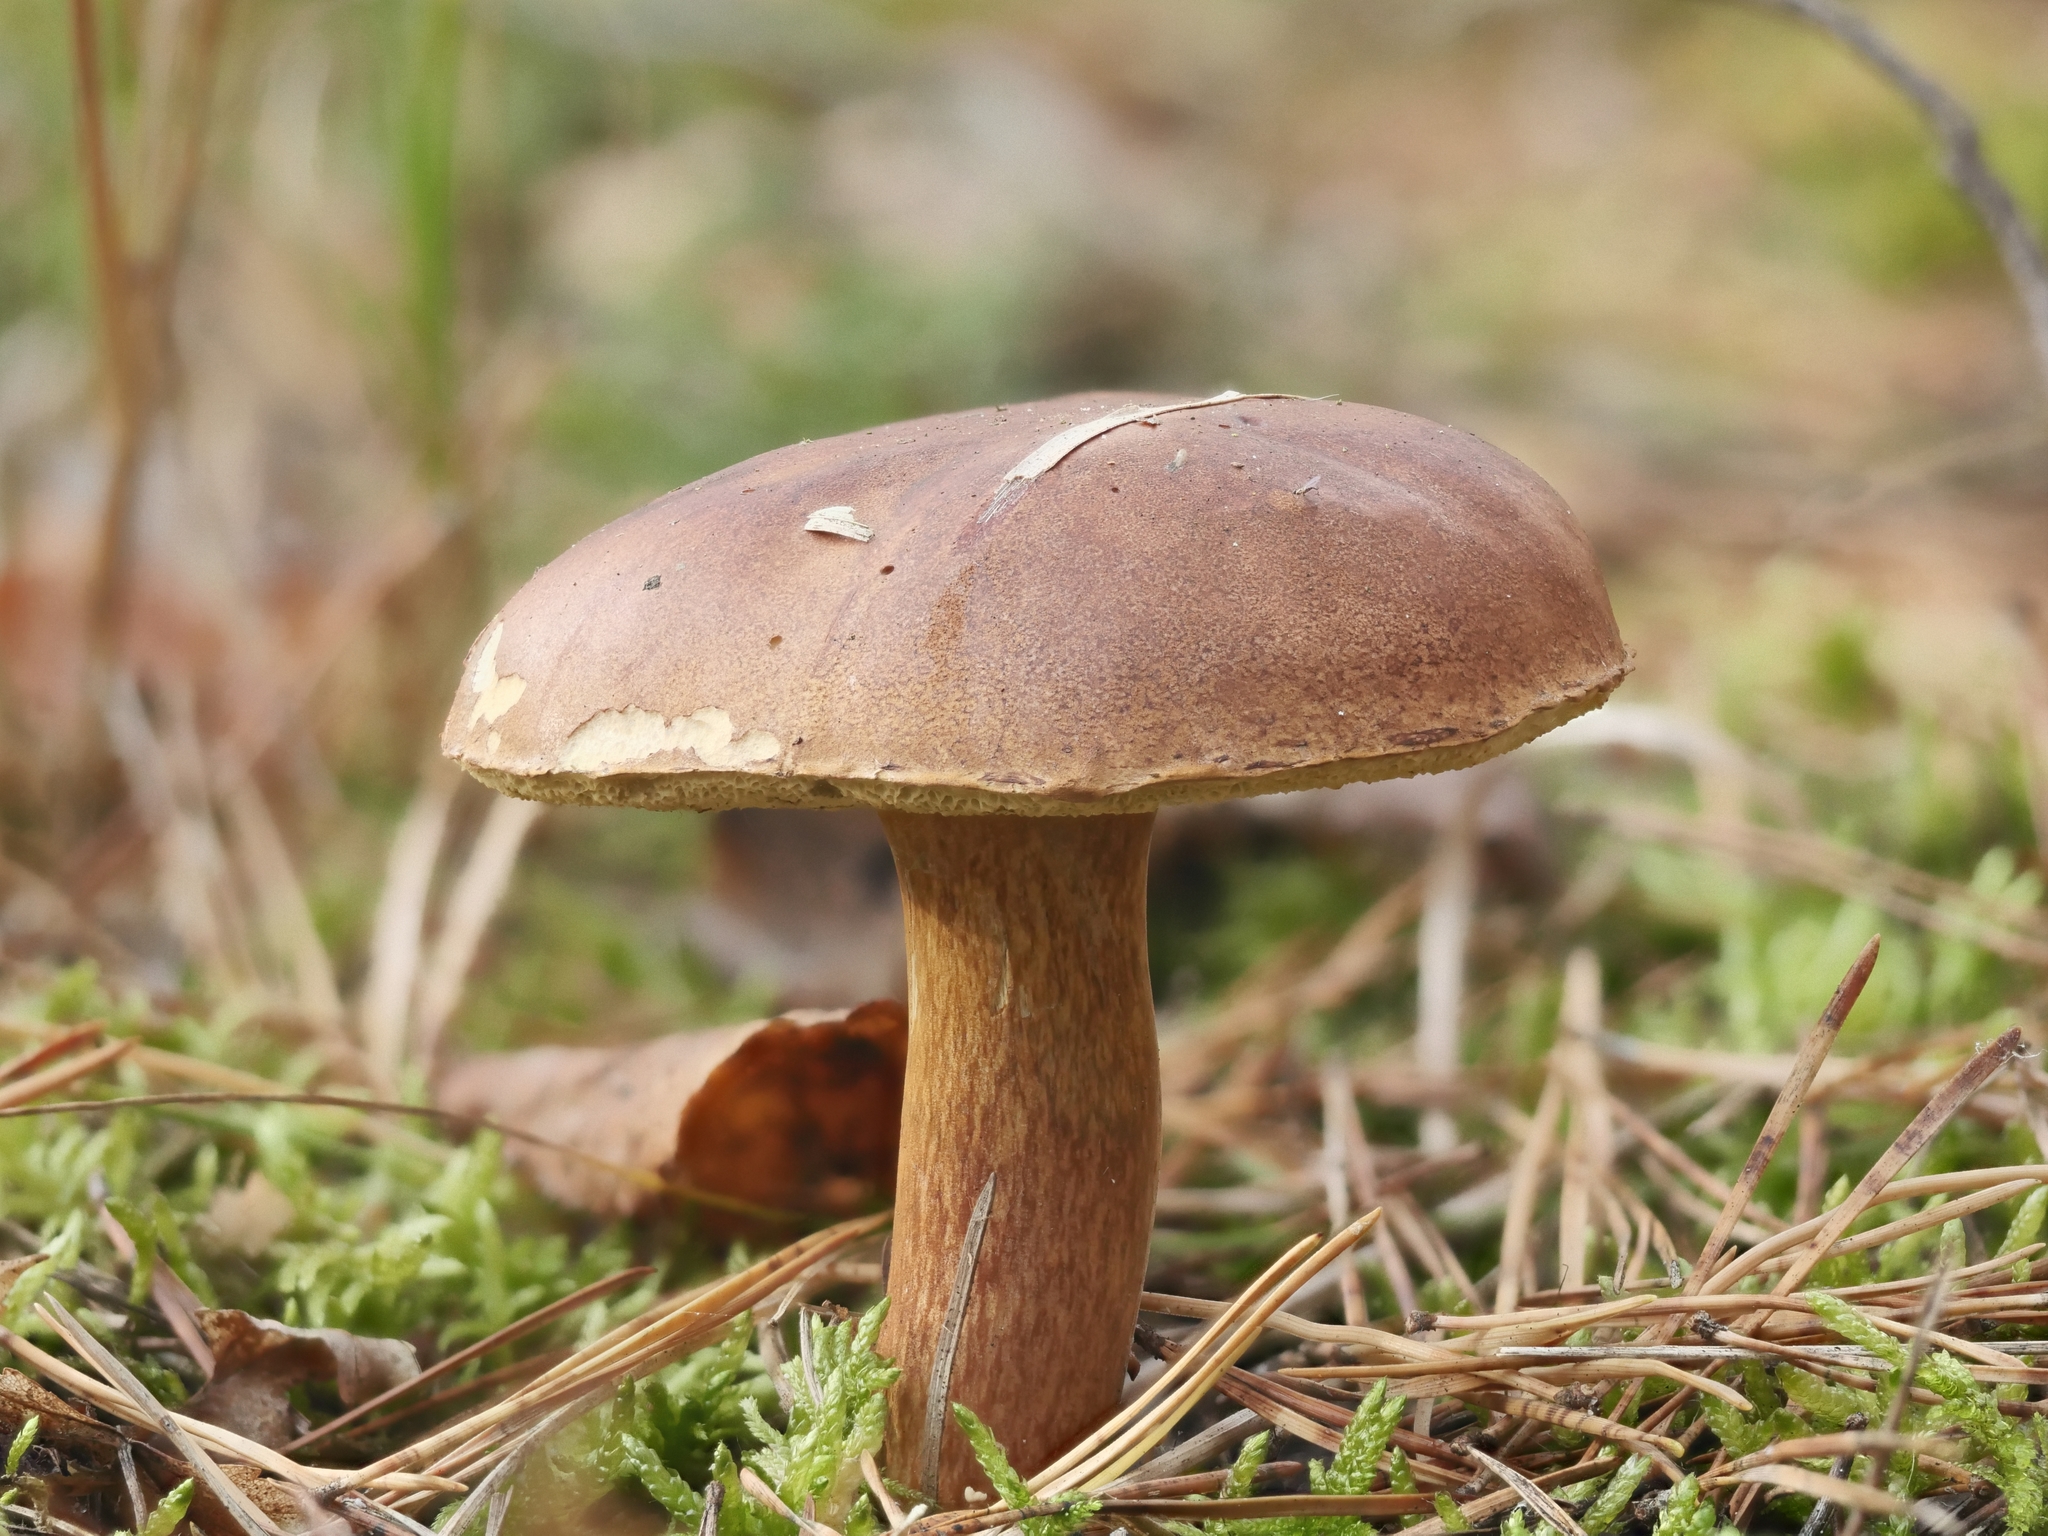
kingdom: Fungi
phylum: Basidiomycota
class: Agaricomycetes
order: Boletales
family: Boletaceae
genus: Imleria
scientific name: Imleria badia
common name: Bay bolete
